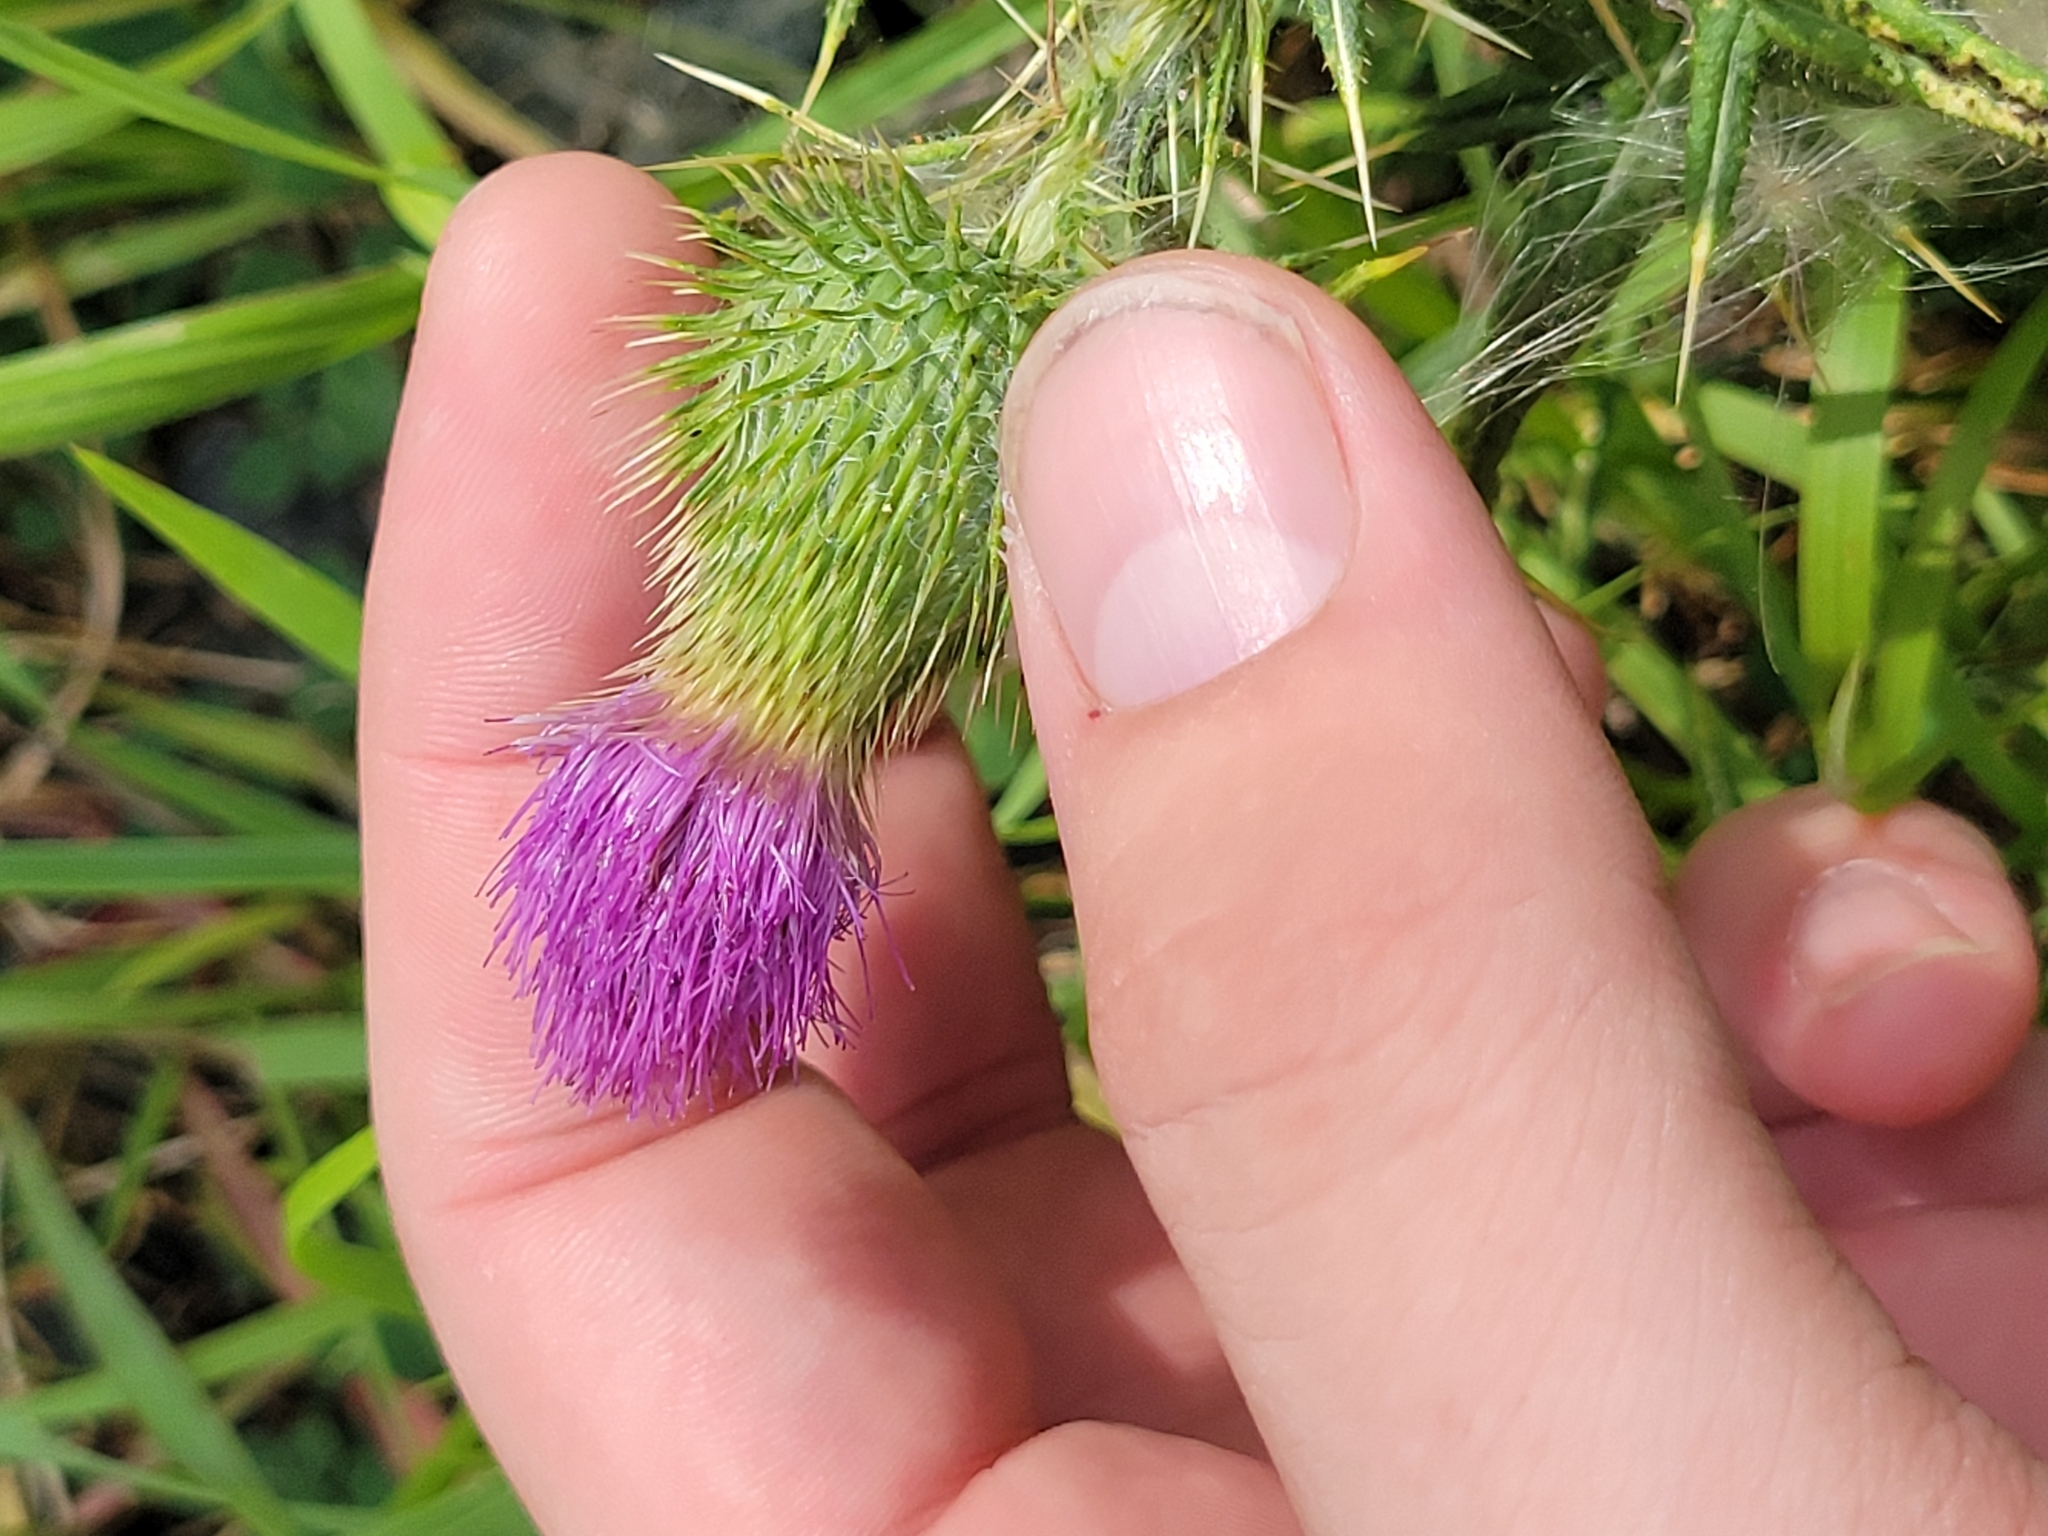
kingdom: Plantae
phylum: Tracheophyta
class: Magnoliopsida
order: Asterales
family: Asteraceae
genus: Cirsium
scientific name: Cirsium vulgare
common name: Bull thistle
